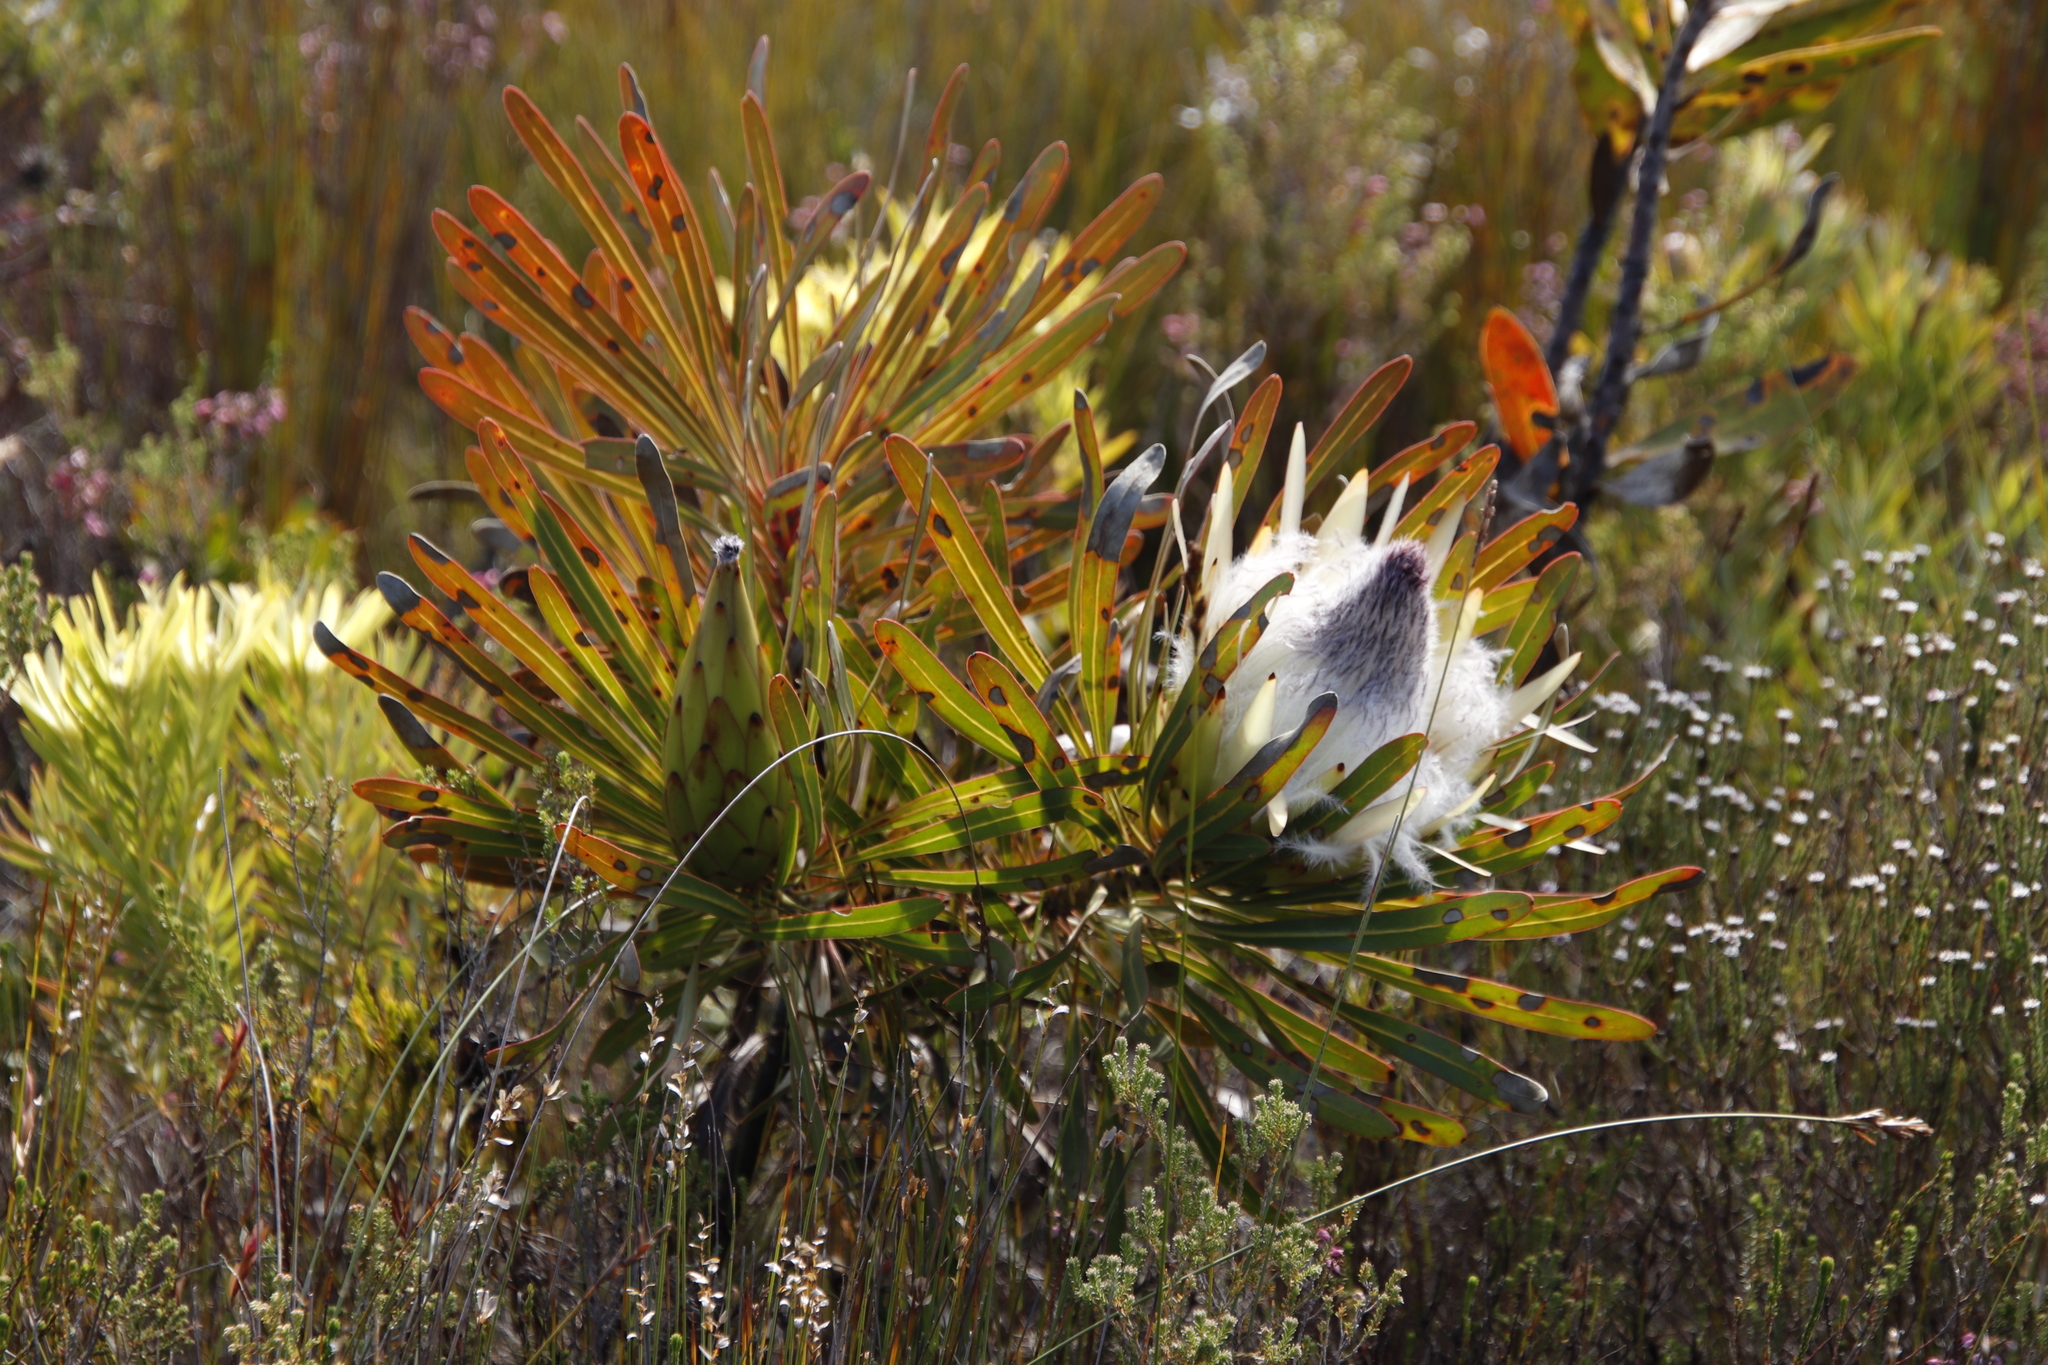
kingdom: Plantae
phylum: Tracheophyta
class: Magnoliopsida
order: Proteales
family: Proteaceae
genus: Protea
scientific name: Protea longifolia
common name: Long-leaf sugarbush
